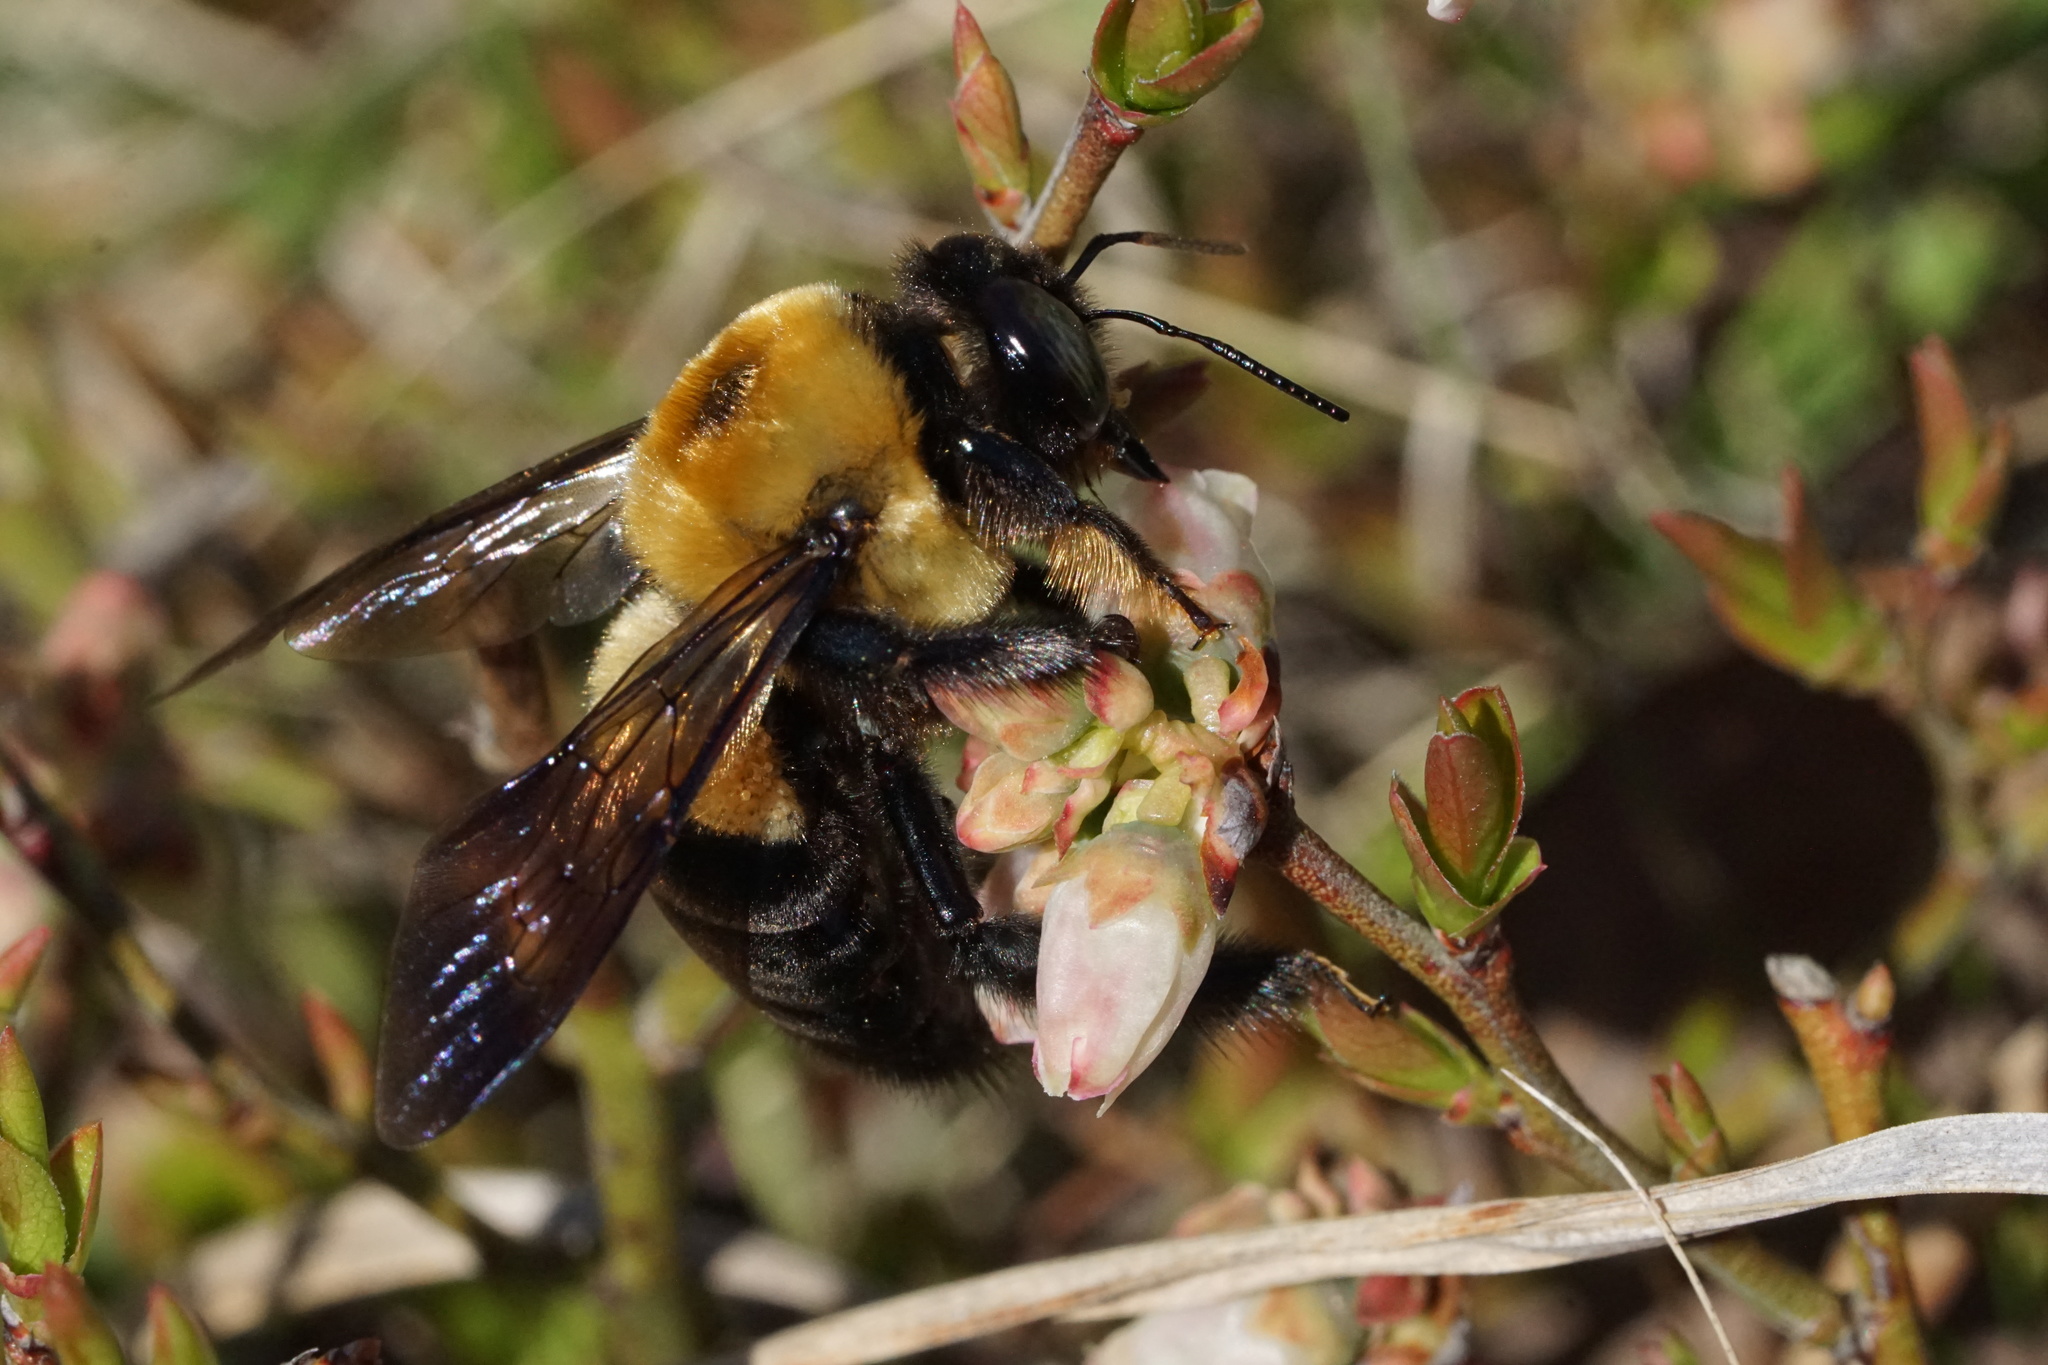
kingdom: Animalia
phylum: Arthropoda
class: Insecta
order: Hymenoptera
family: Apidae
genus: Xylocopa
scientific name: Xylocopa virginica
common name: Carpenter bee
